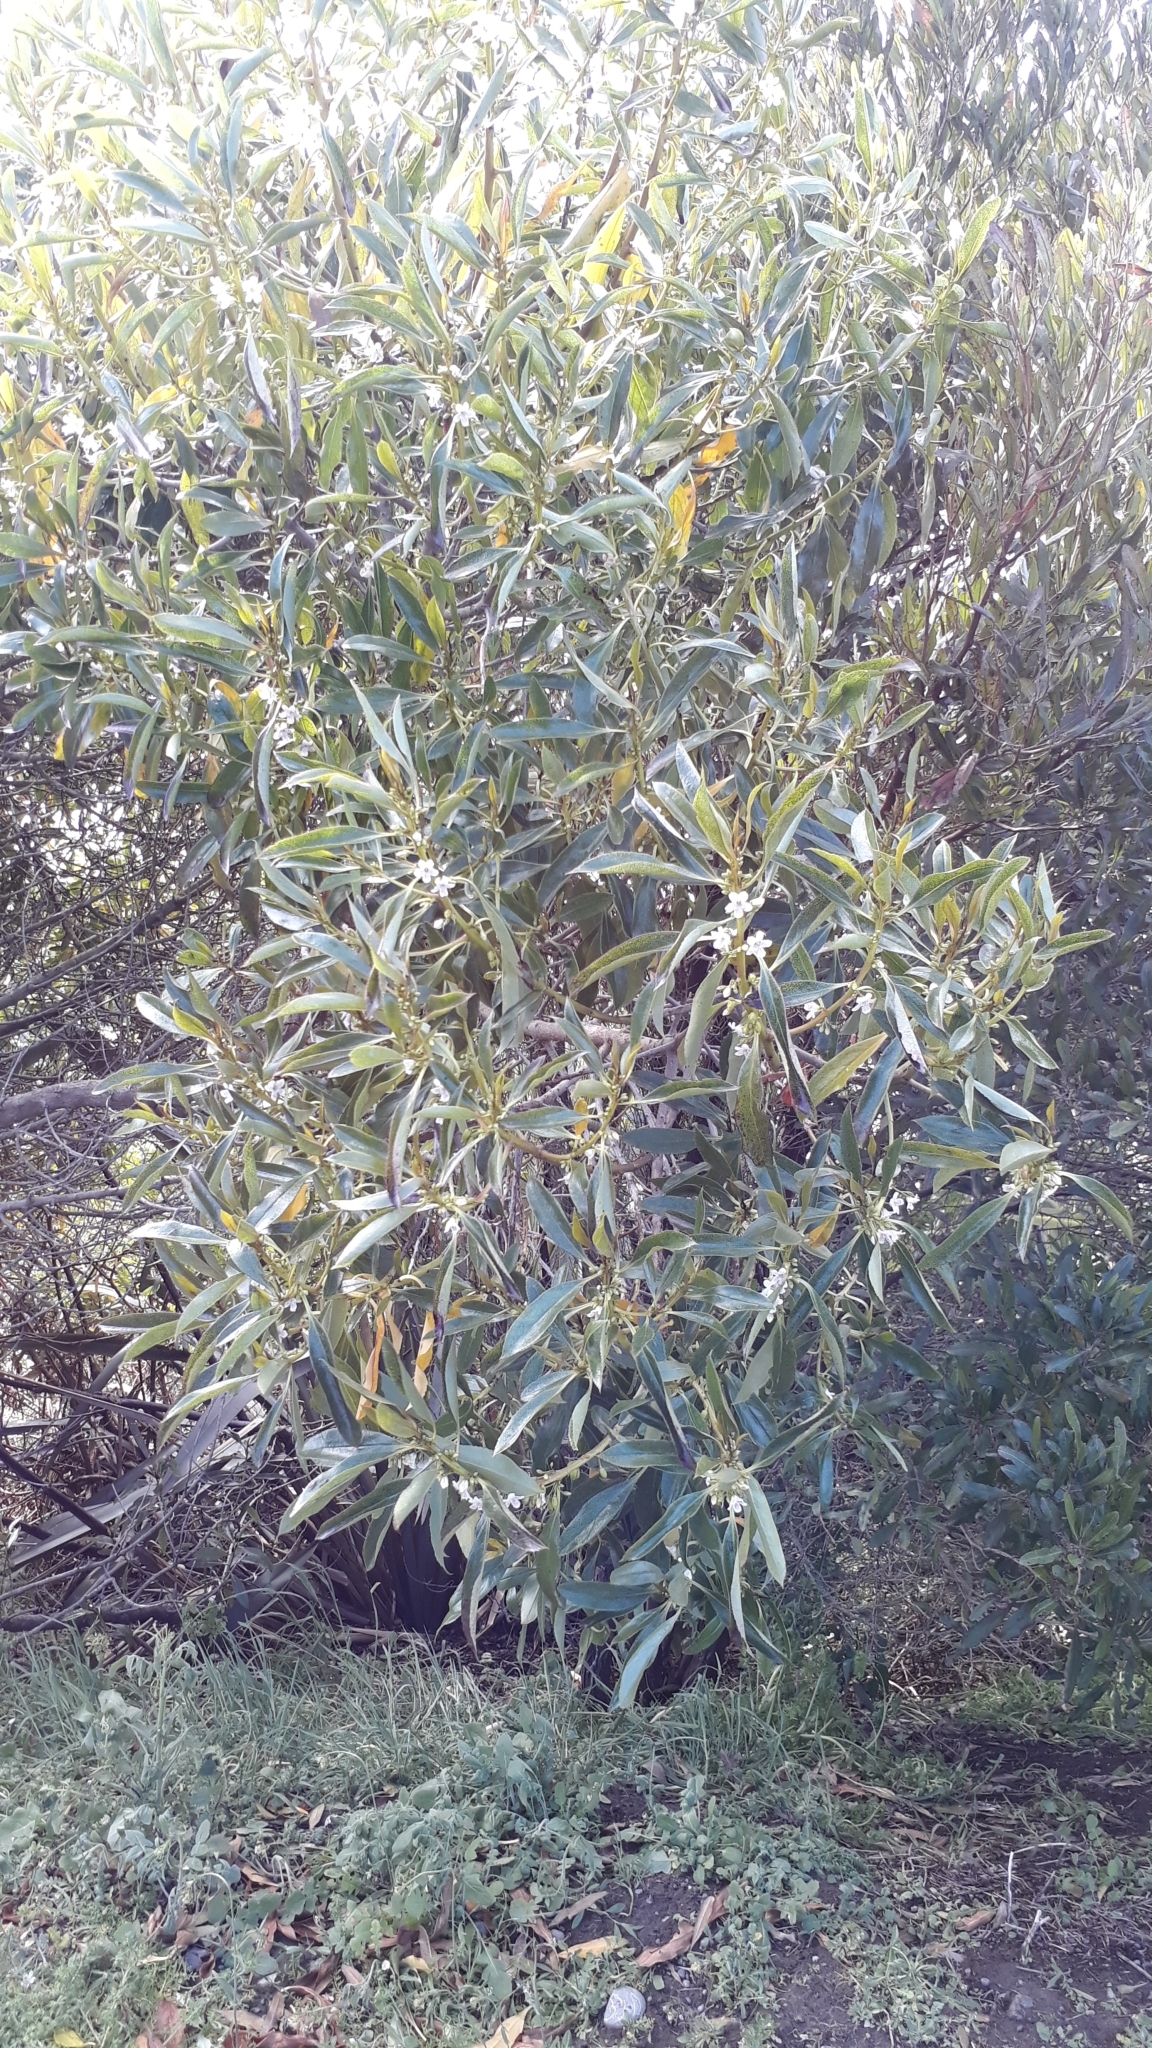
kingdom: Plantae
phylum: Tracheophyta
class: Magnoliopsida
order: Lamiales
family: Scrophulariaceae
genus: Myoporum
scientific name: Myoporum laetum
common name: Ngaio tree
